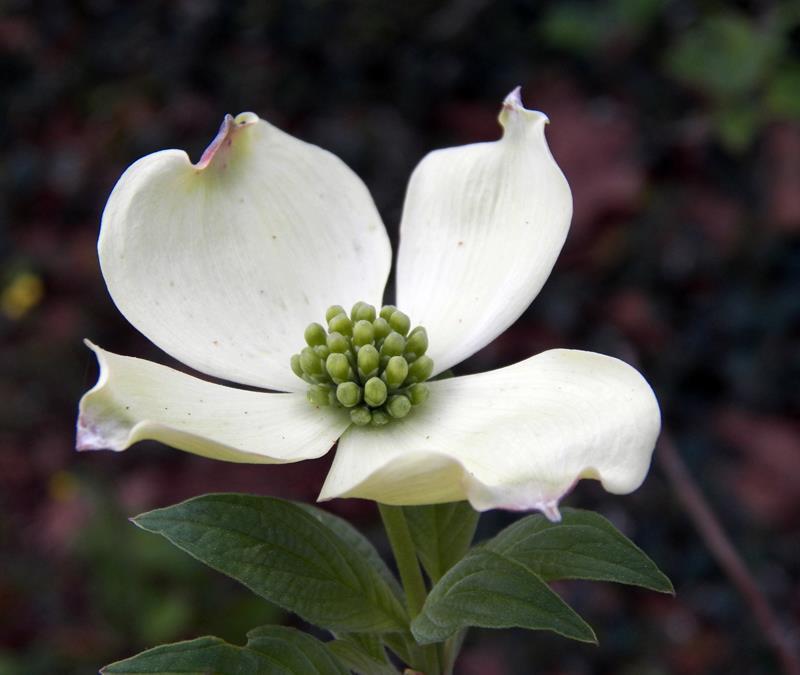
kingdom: Plantae
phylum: Tracheophyta
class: Magnoliopsida
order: Cornales
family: Cornaceae
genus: Cornus
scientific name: Cornus florida
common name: Flowering dogwood
